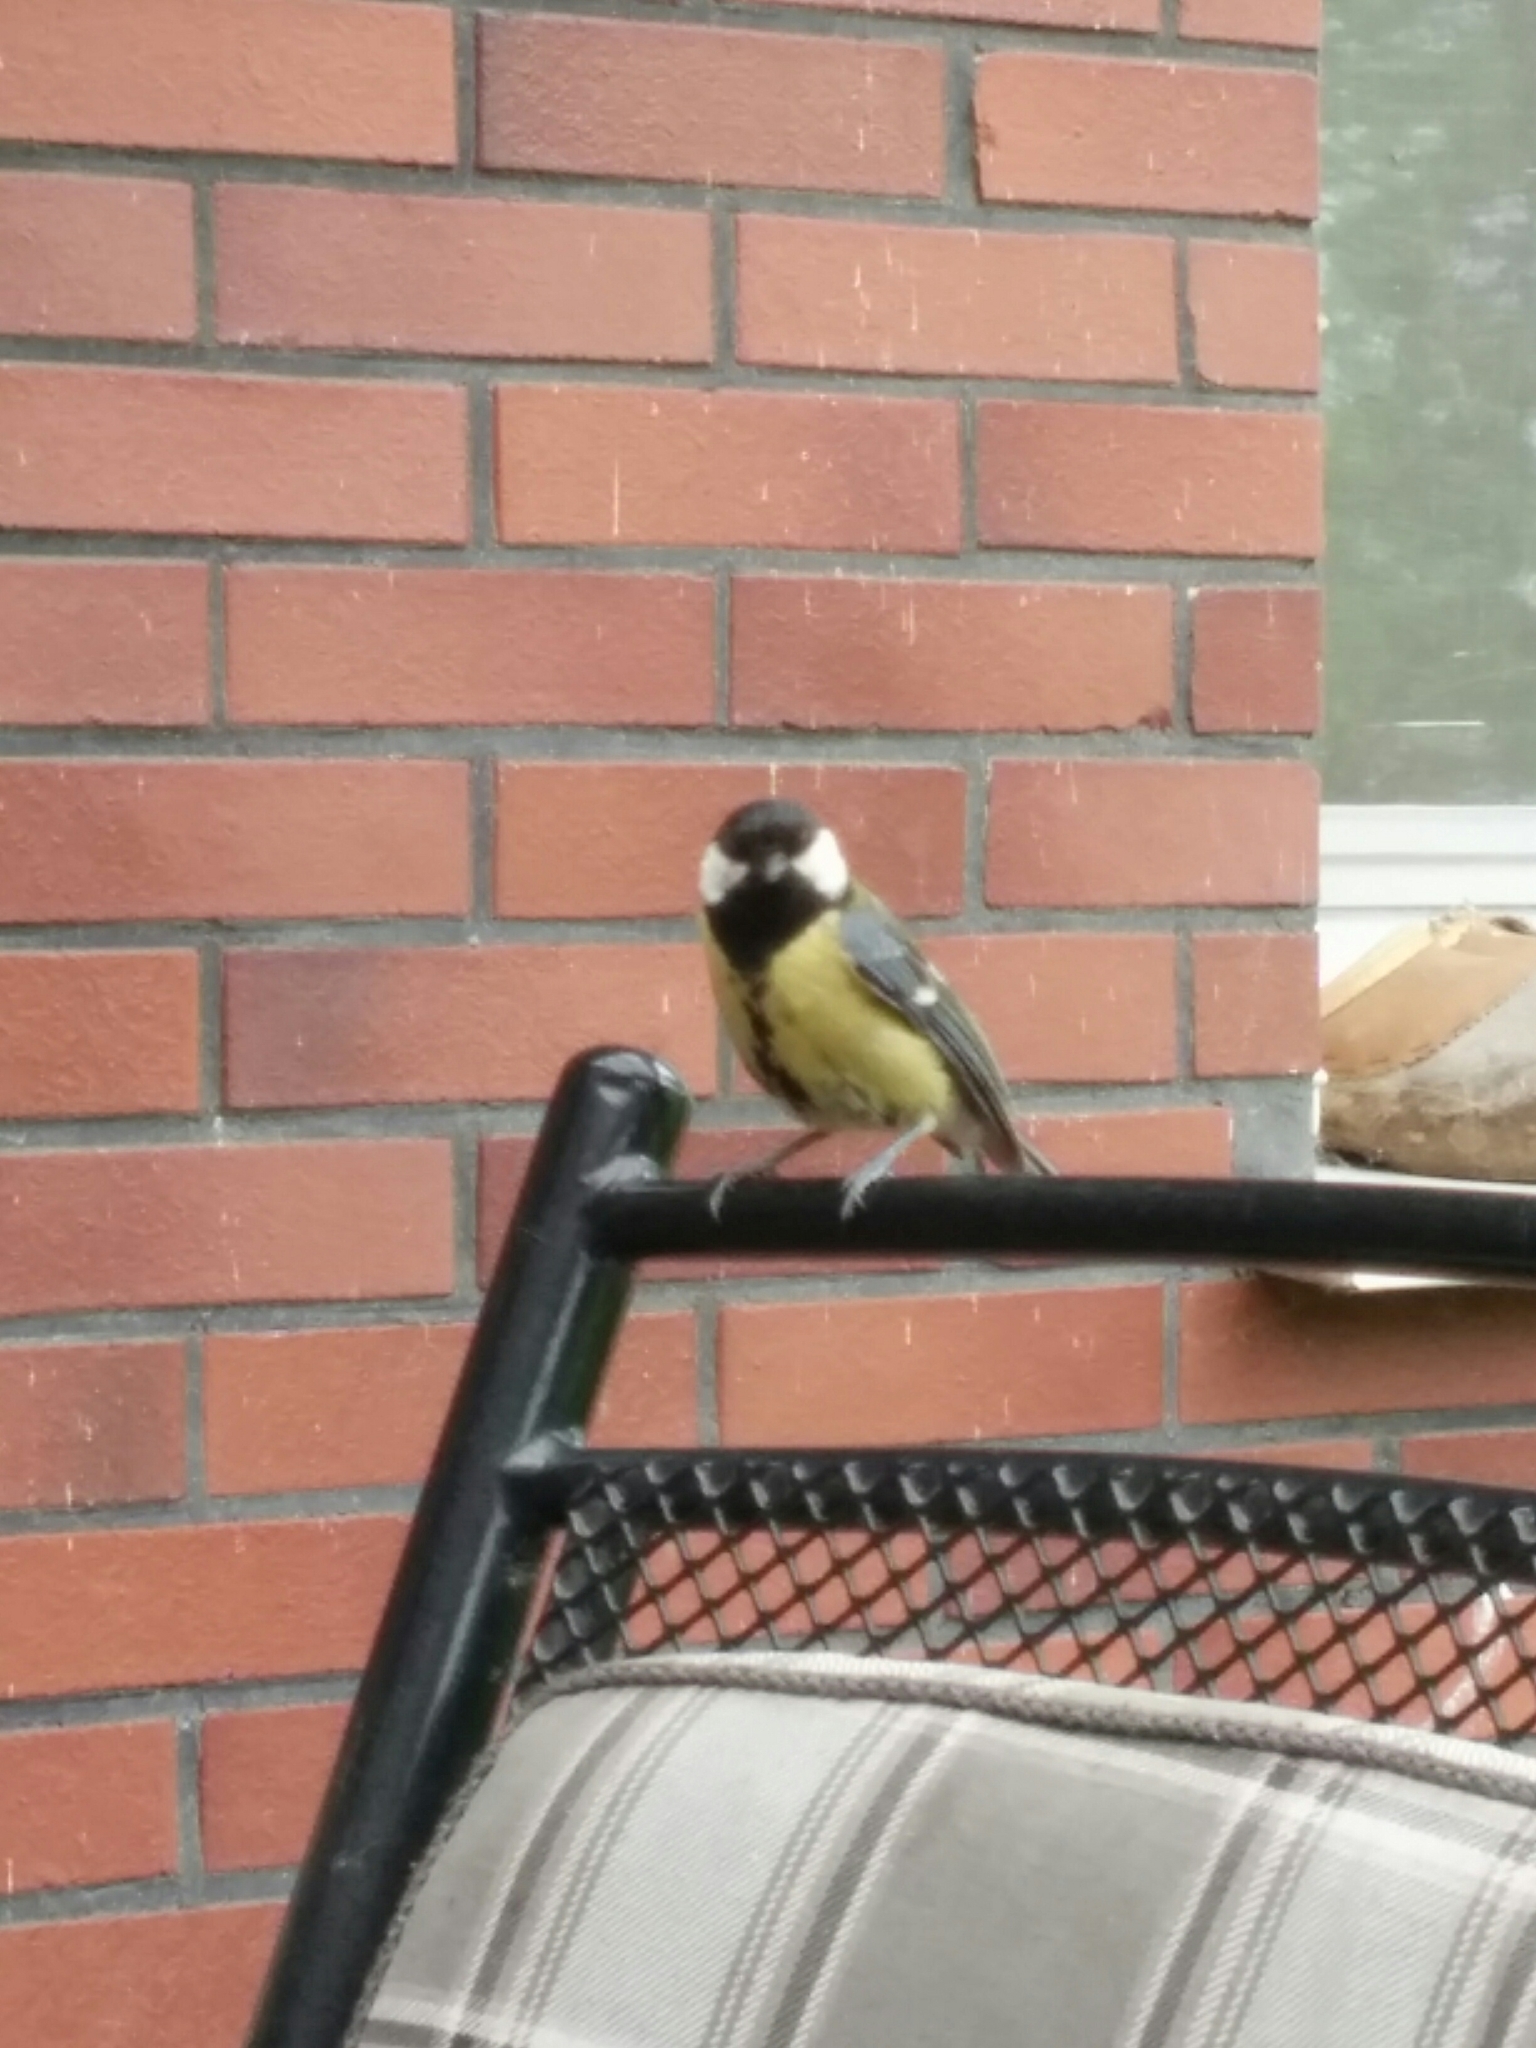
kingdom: Animalia
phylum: Chordata
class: Aves
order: Passeriformes
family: Paridae
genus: Parus
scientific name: Parus major
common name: Great tit
